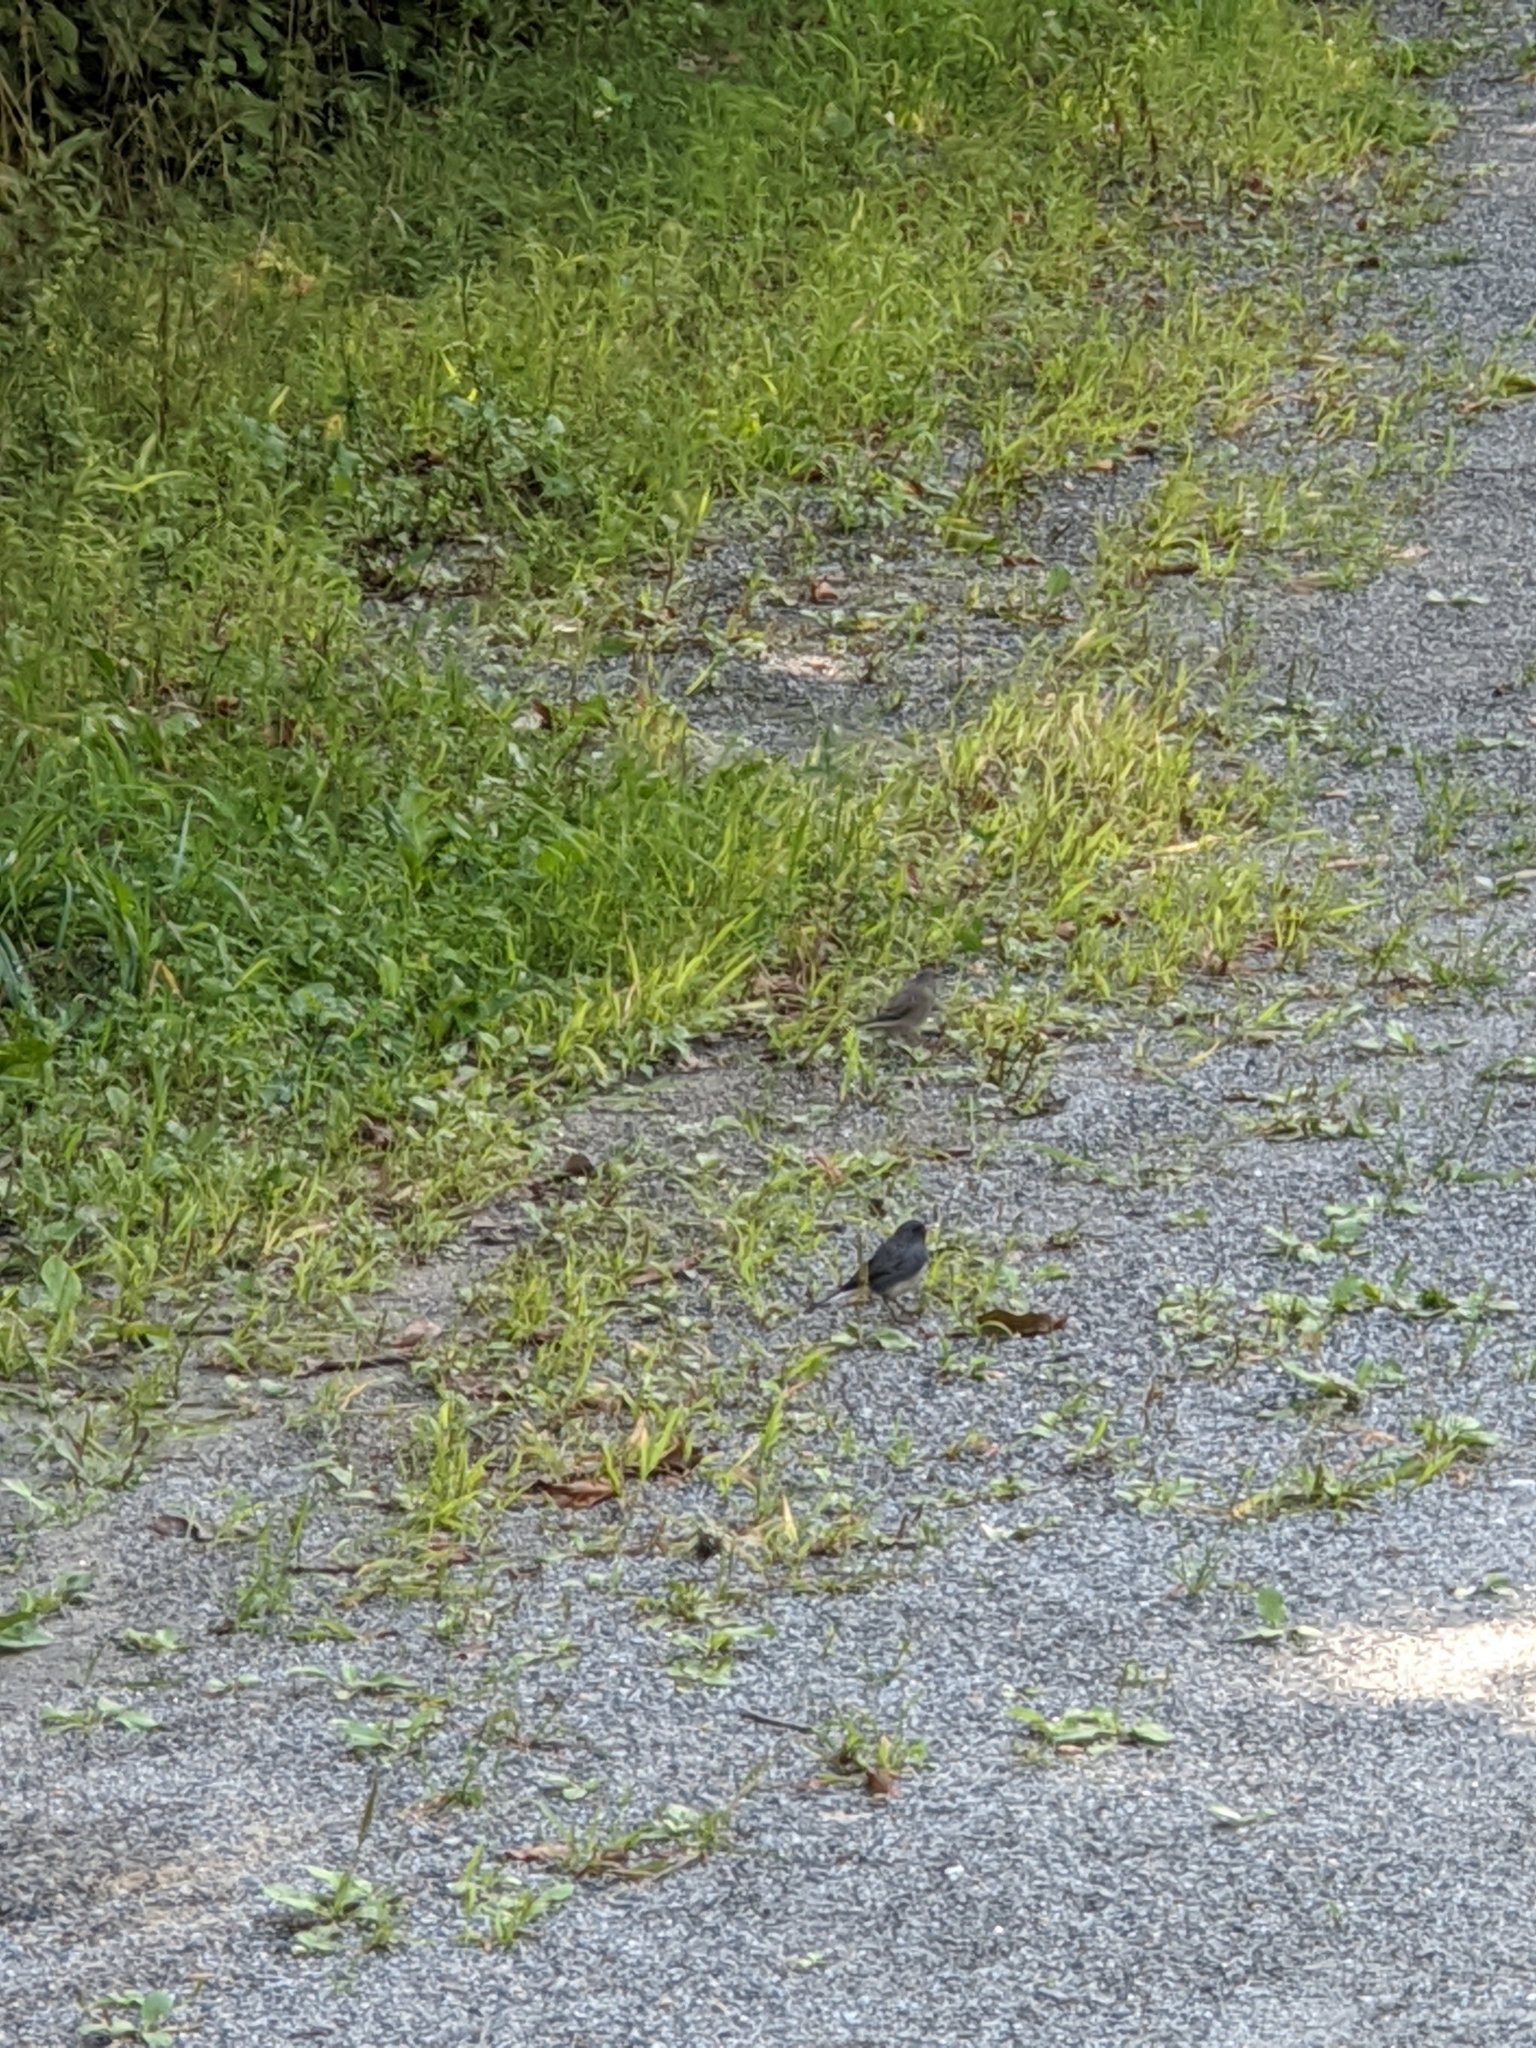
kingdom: Animalia
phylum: Chordata
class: Aves
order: Passeriformes
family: Passerellidae
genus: Junco
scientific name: Junco hyemalis
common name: Dark-eyed junco
